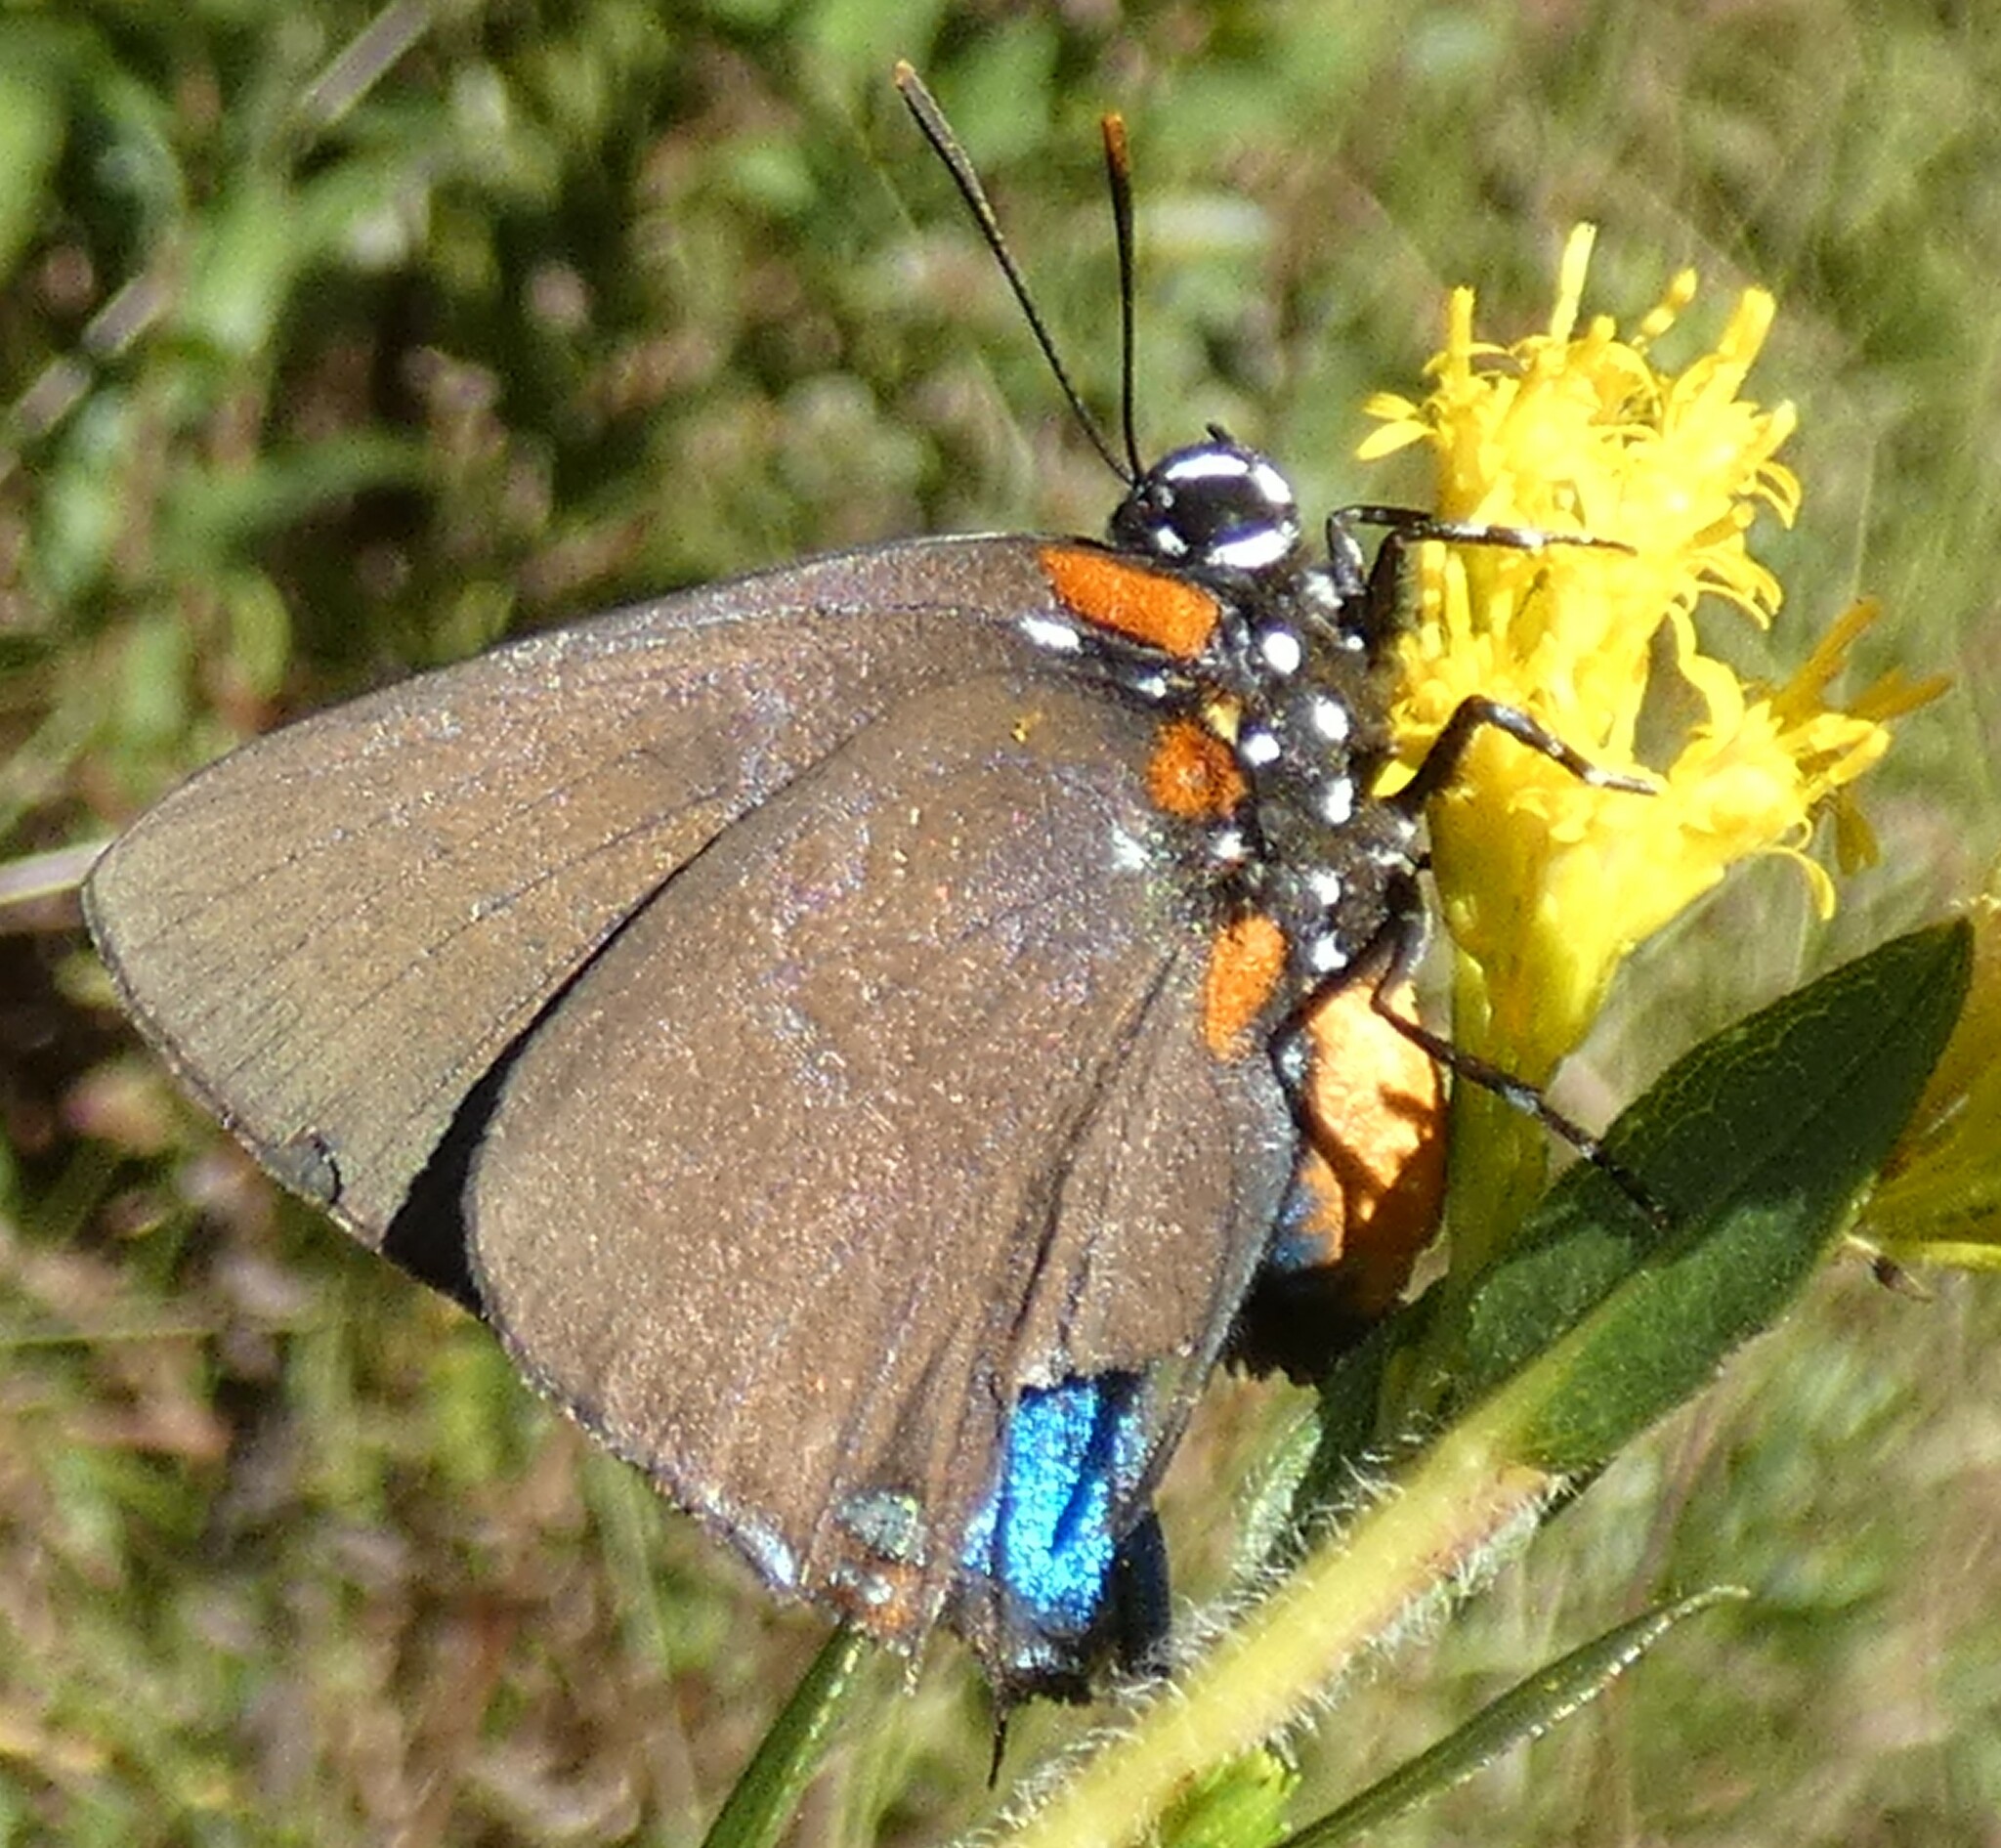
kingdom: Animalia
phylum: Arthropoda
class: Insecta
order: Lepidoptera
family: Lycaenidae
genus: Atlides
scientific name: Atlides halesus
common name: Great purple hairstreak
